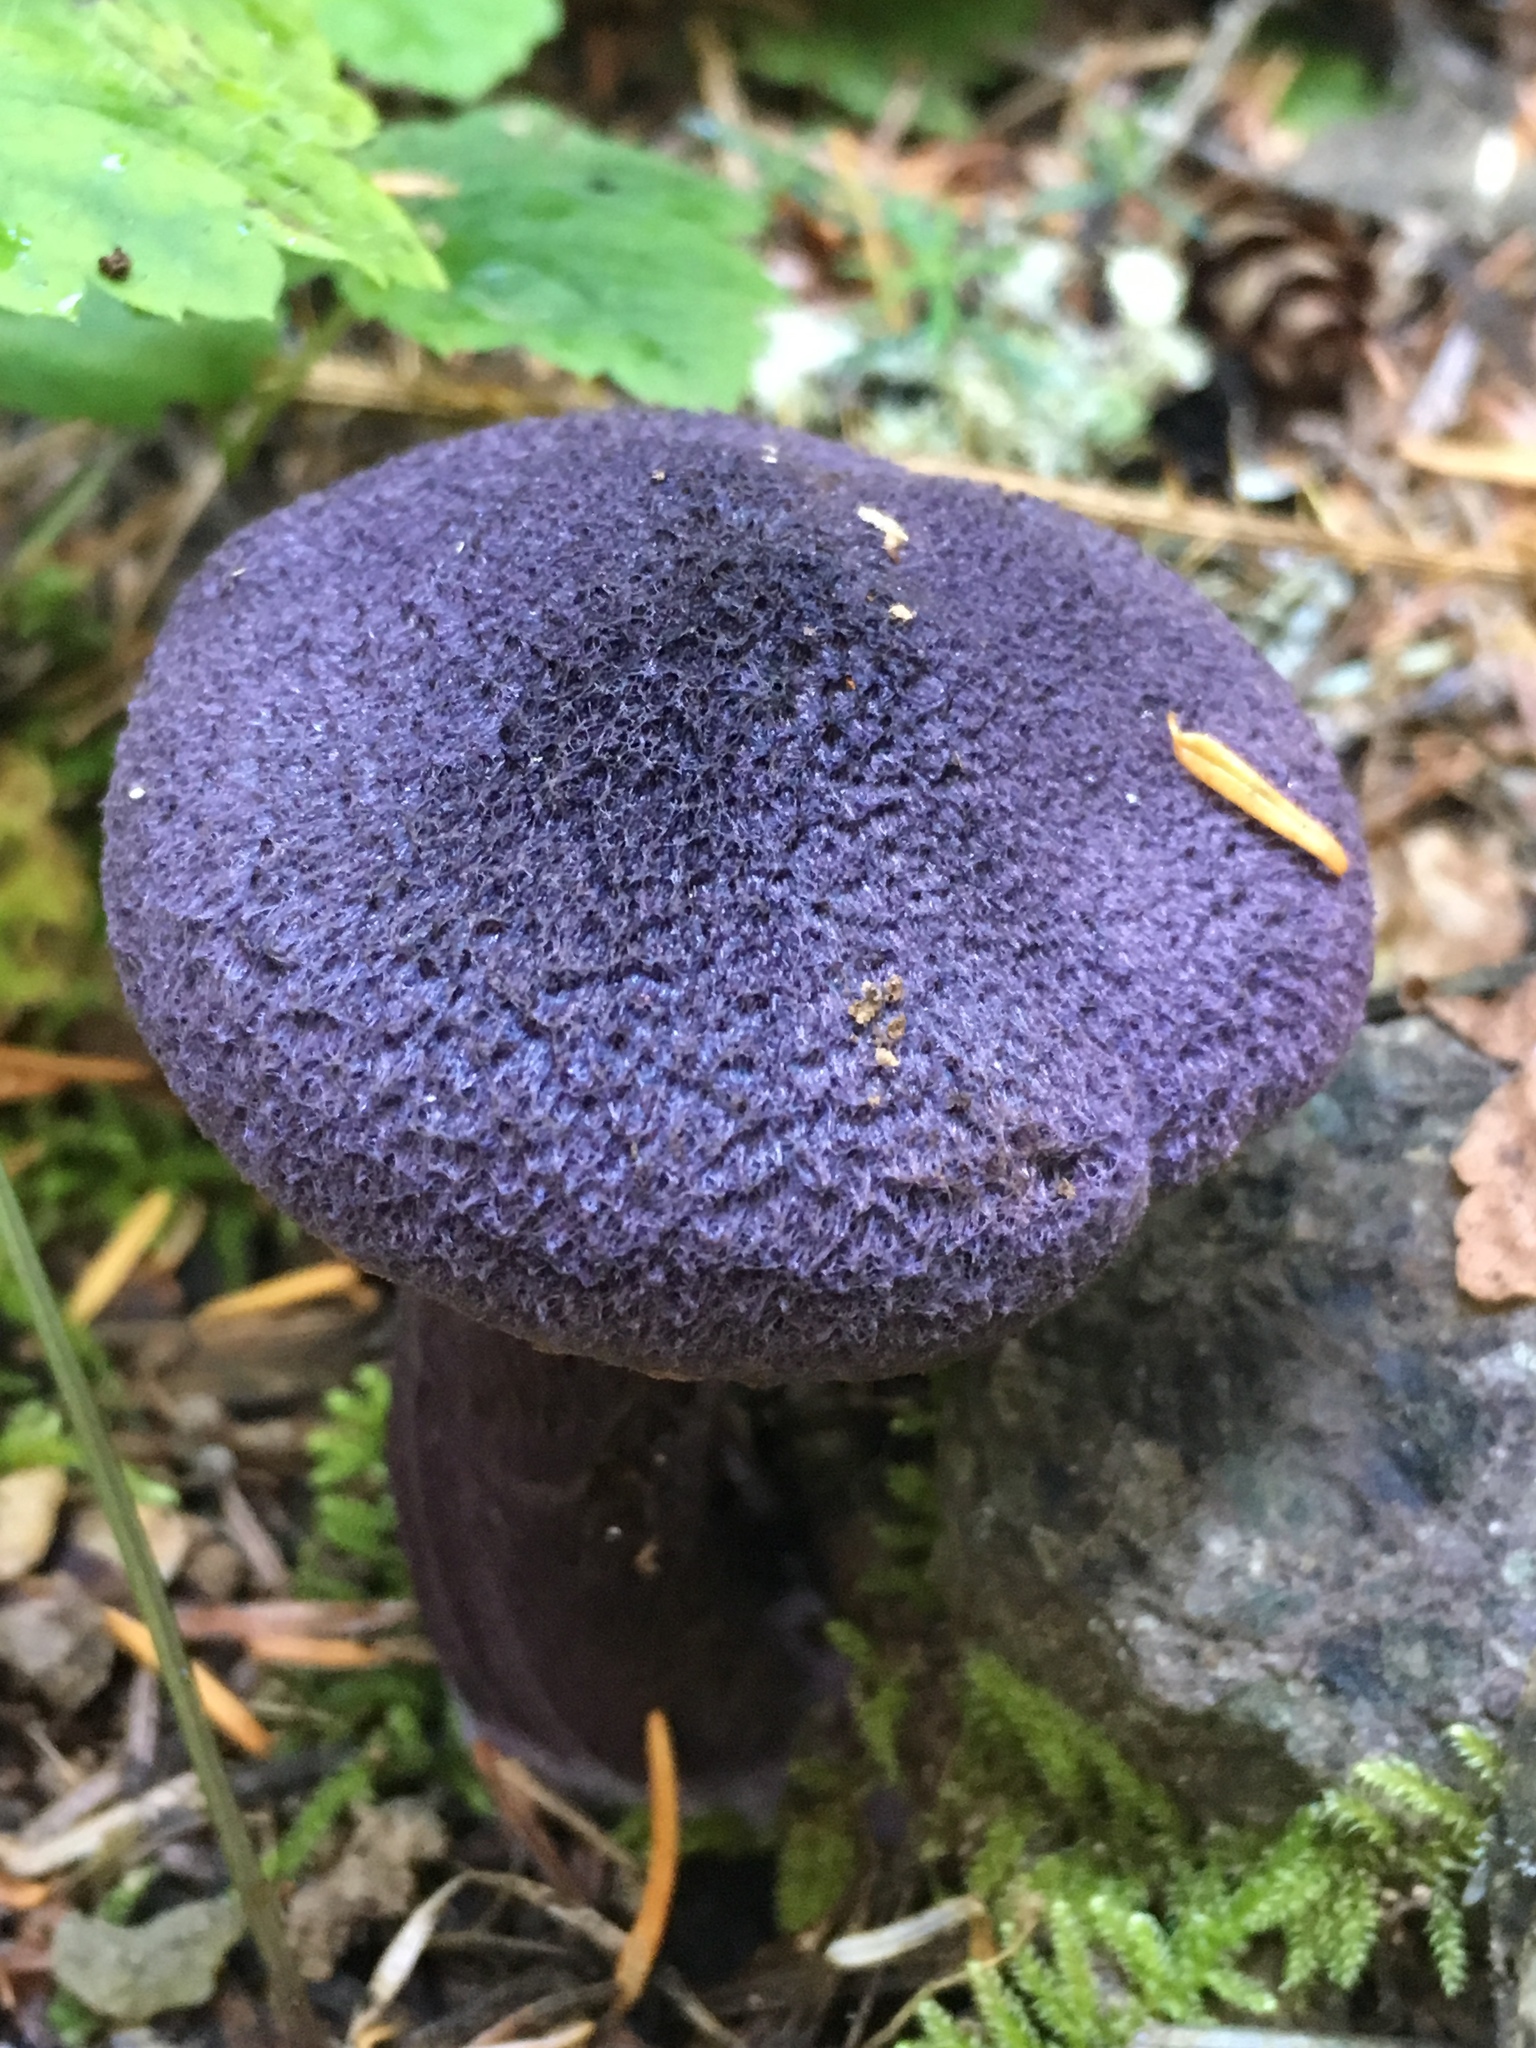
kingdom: Fungi
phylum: Basidiomycota
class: Agaricomycetes
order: Agaricales
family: Cortinariaceae
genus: Cortinarius
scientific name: Cortinarius violaceus
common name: Violet webcap
